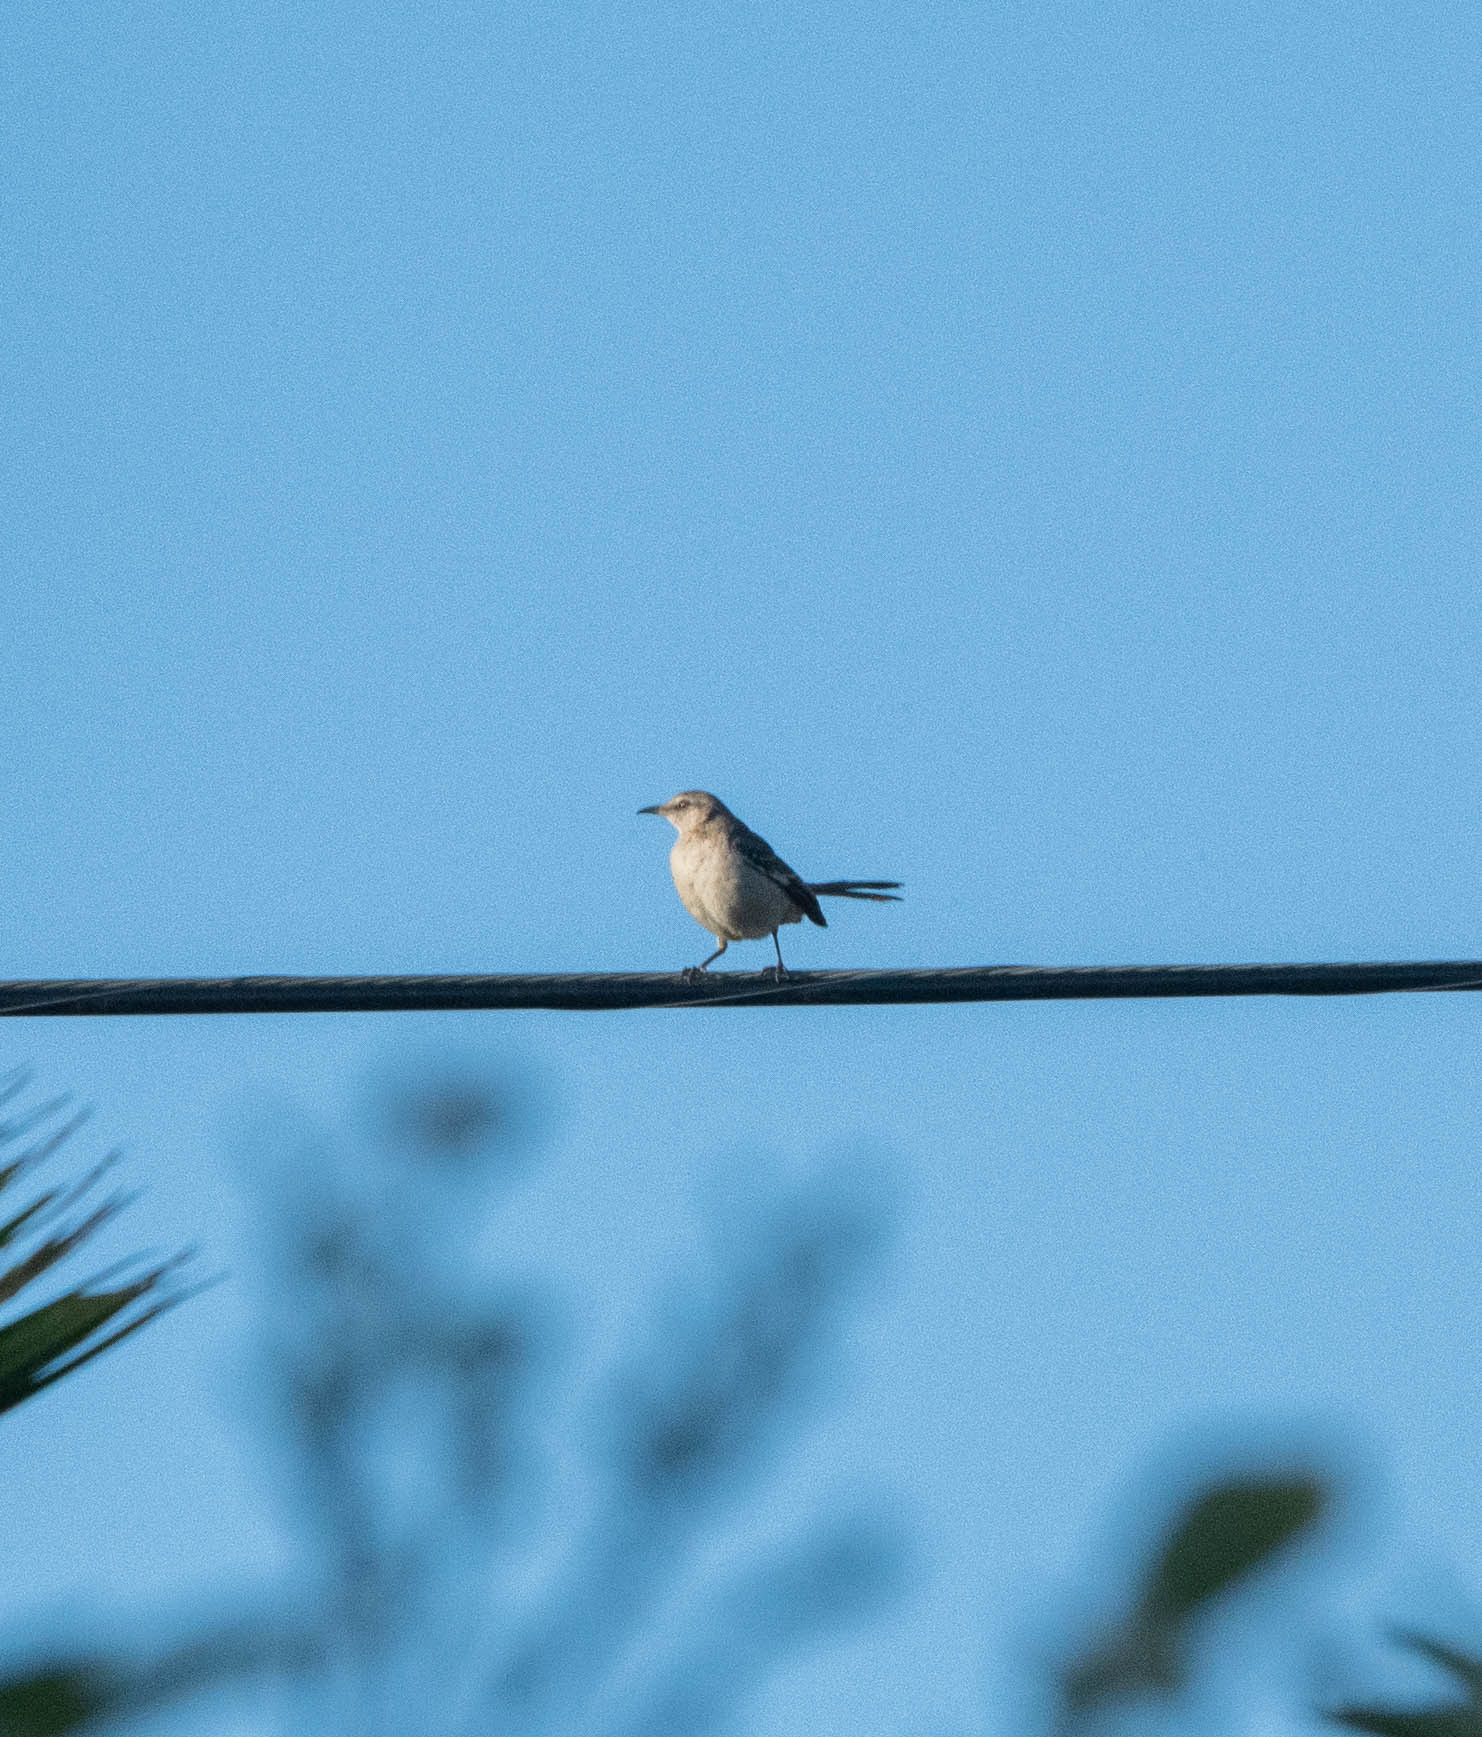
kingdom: Animalia
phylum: Chordata
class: Aves
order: Passeriformes
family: Mimidae
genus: Mimus
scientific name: Mimus polyglottos
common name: Northern mockingbird
